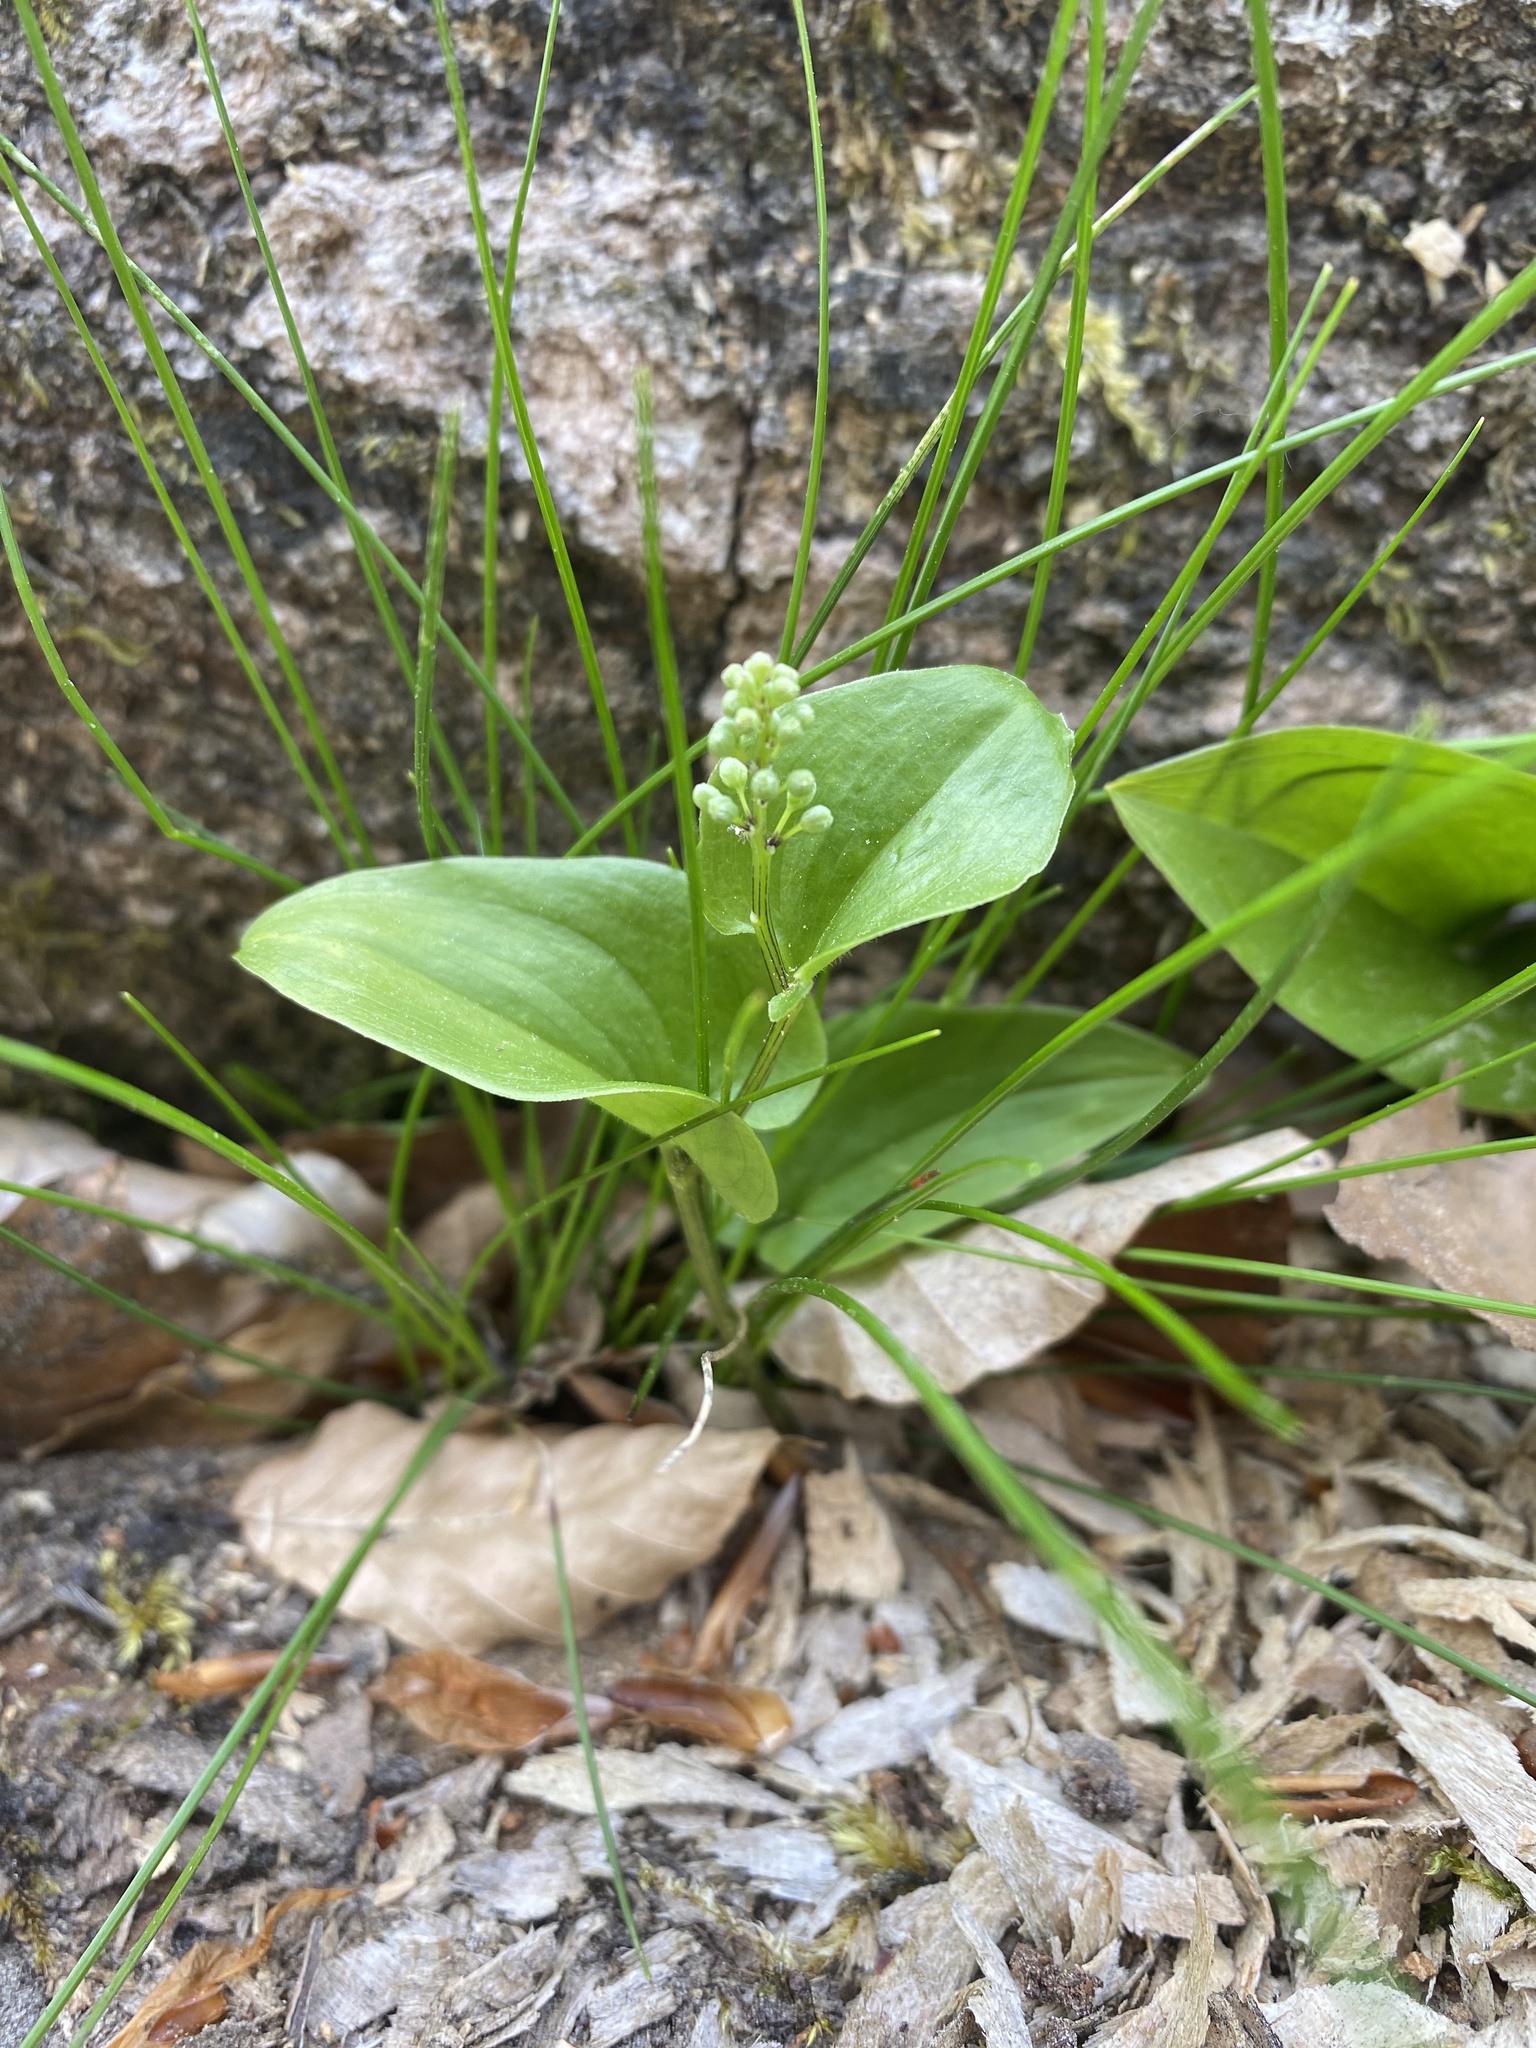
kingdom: Plantae
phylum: Tracheophyta
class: Liliopsida
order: Asparagales
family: Asparagaceae
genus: Maianthemum
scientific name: Maianthemum bifolium
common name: May lily
